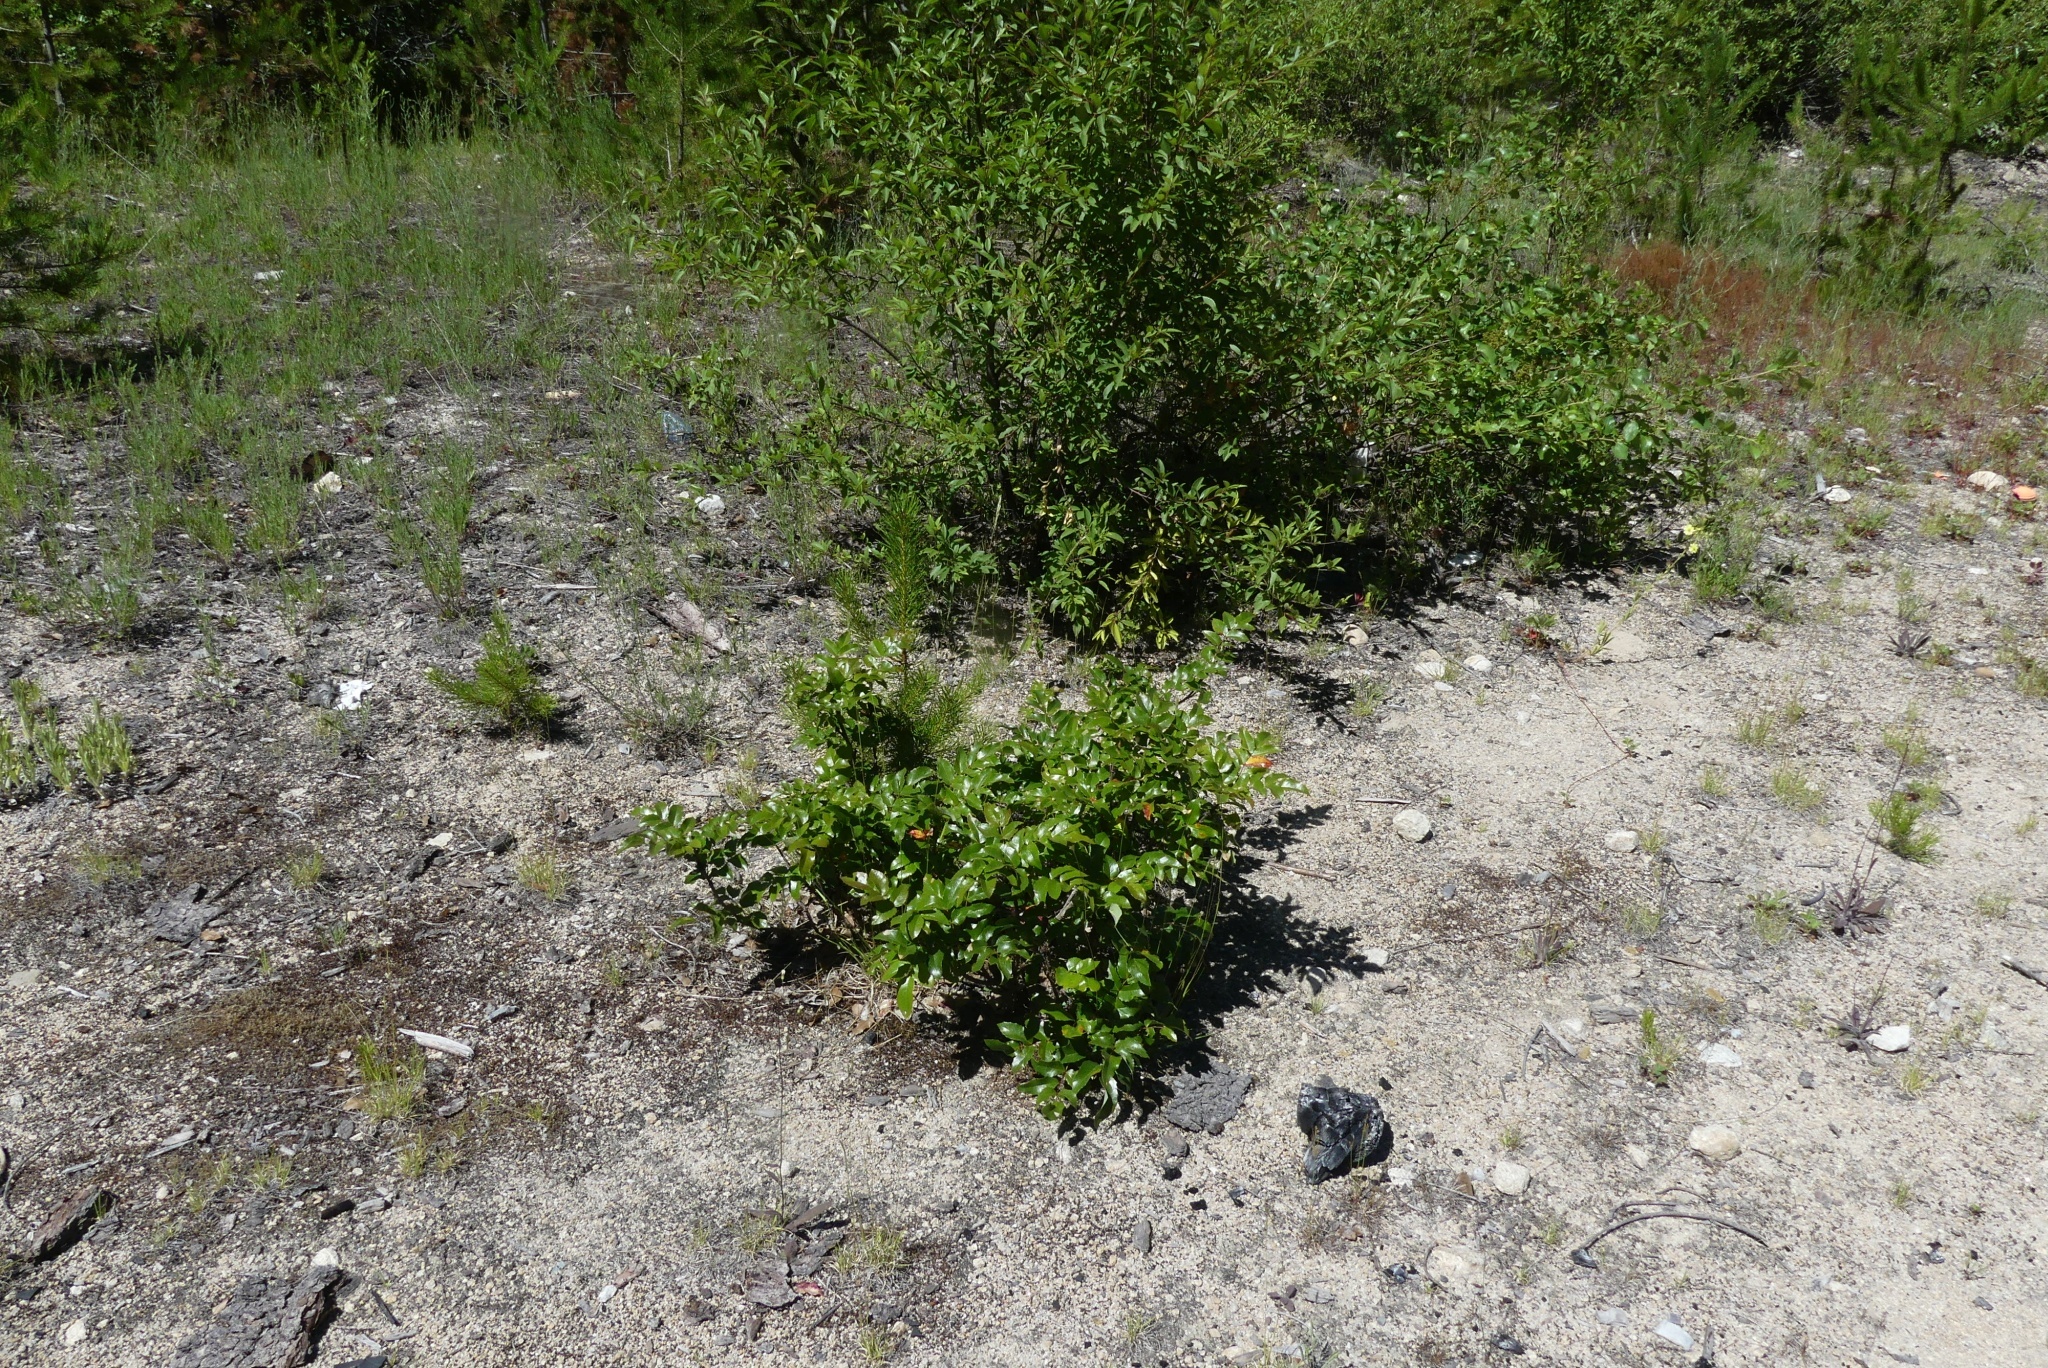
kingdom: Plantae
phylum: Tracheophyta
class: Magnoliopsida
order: Ranunculales
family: Berberidaceae
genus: Mahonia
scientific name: Mahonia aquifolium
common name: Oregon-grape
